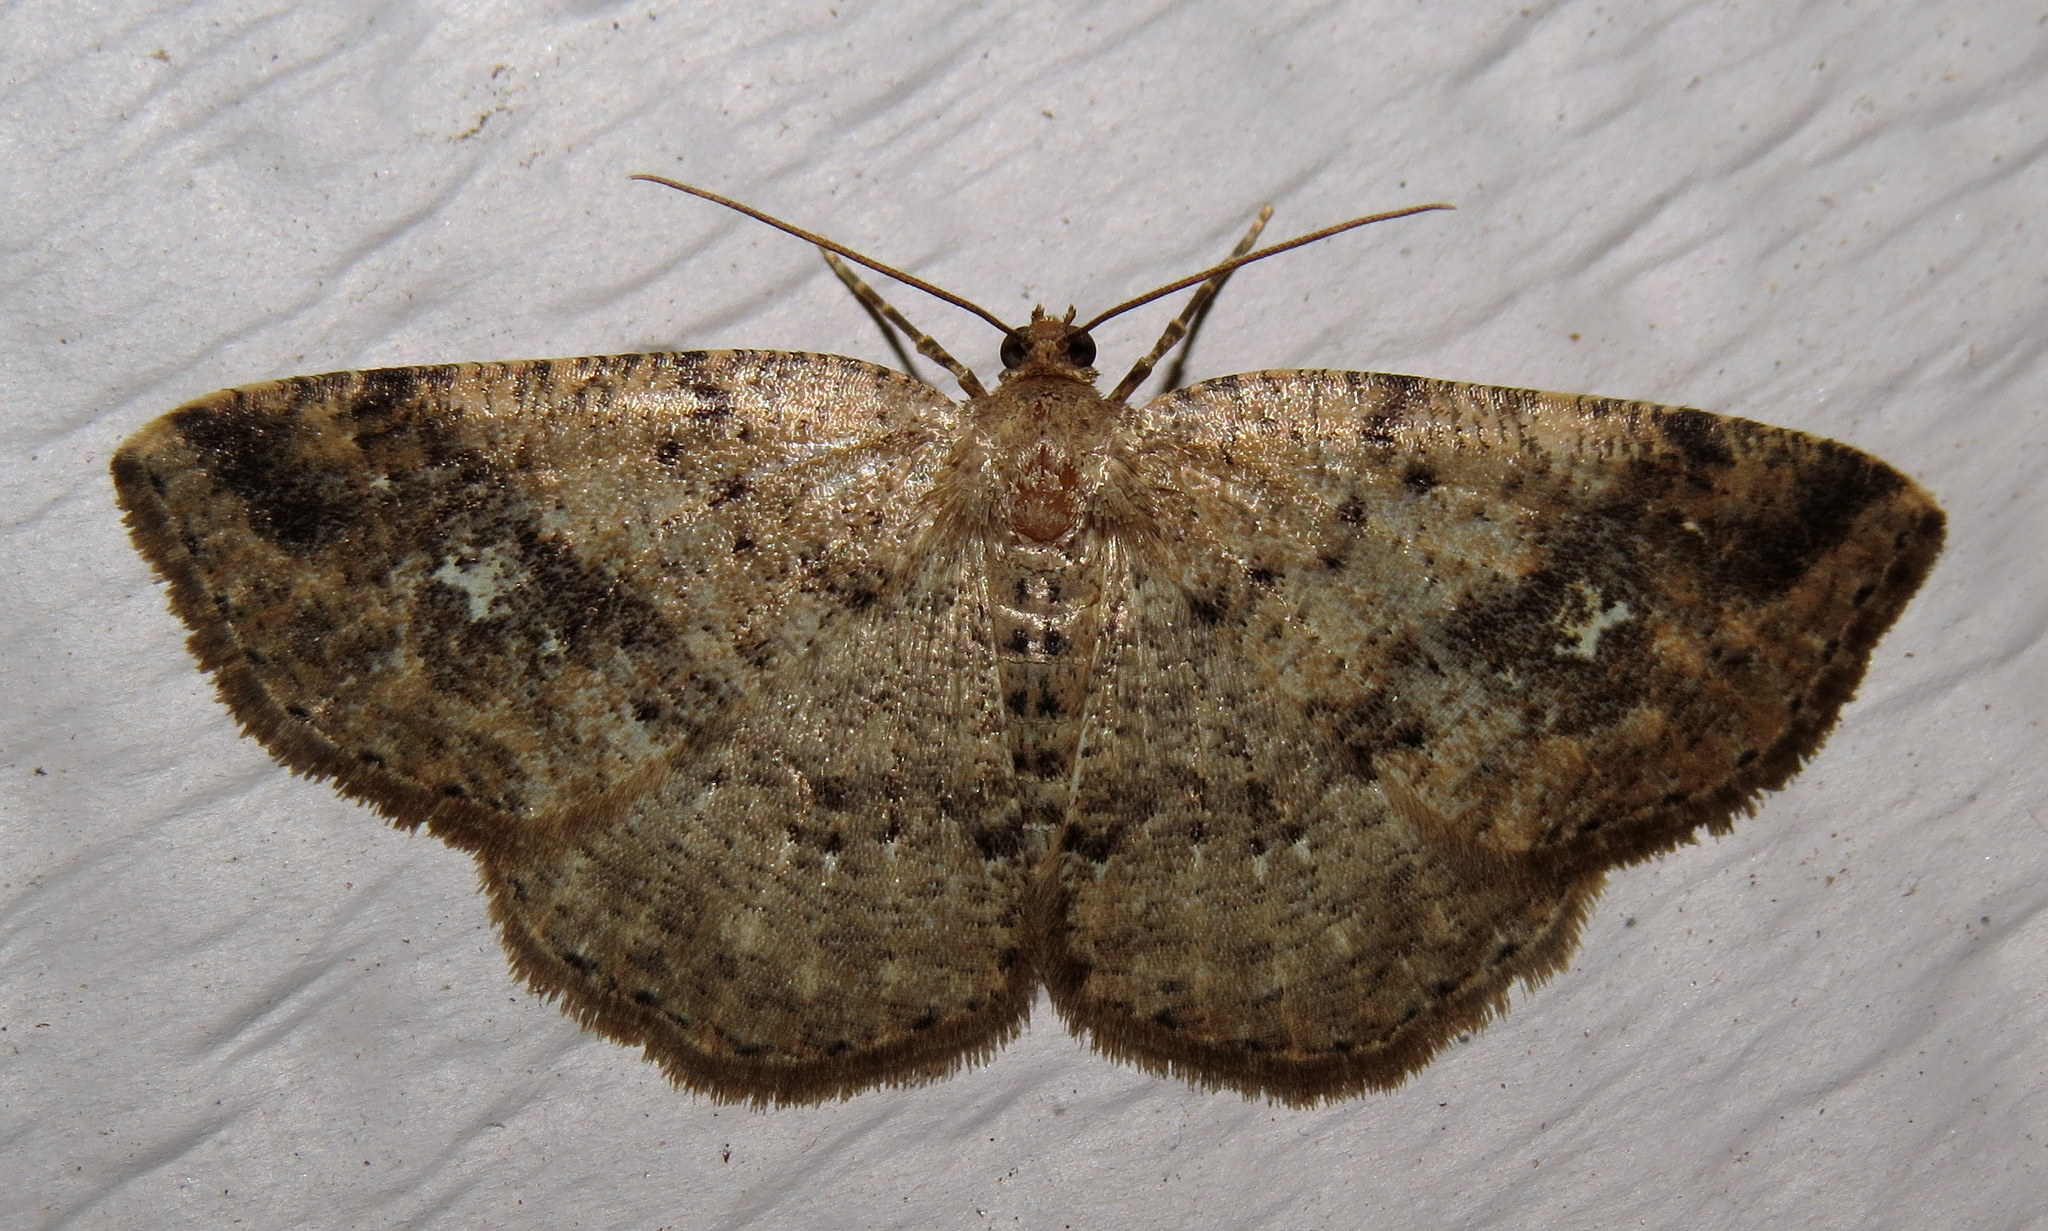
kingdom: Animalia
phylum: Arthropoda
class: Insecta
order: Lepidoptera
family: Geometridae
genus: Homochlodes
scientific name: Homochlodes fritillaria
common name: Pale homochlodes
